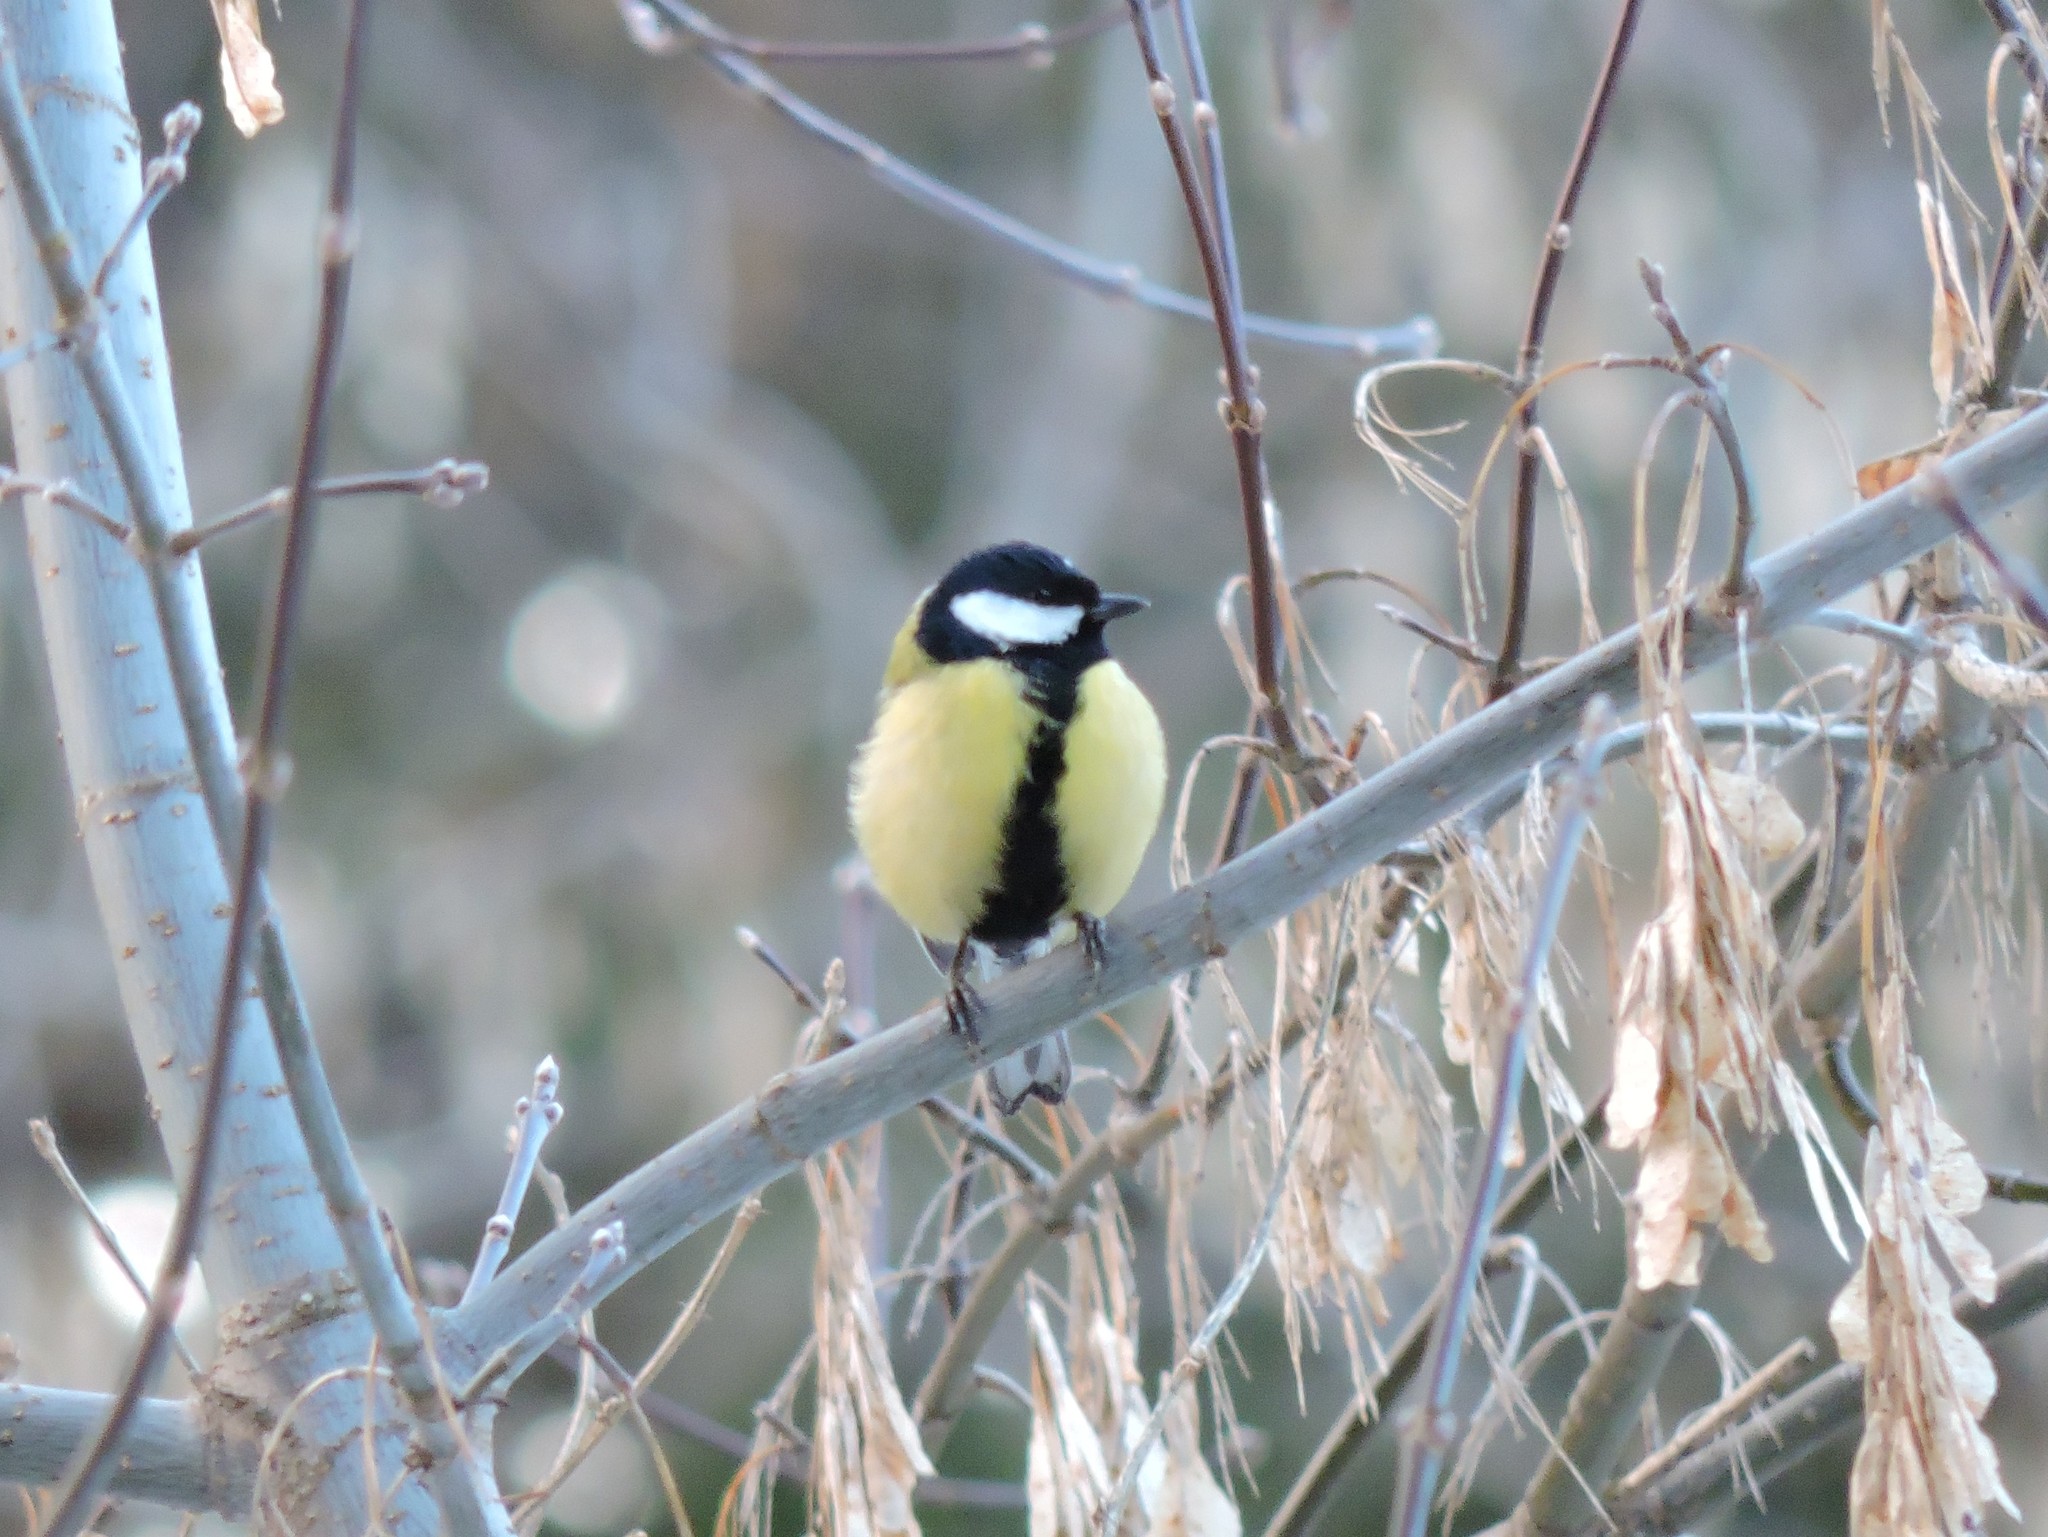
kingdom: Animalia
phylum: Chordata
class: Aves
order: Passeriformes
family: Paridae
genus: Parus
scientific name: Parus major
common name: Great tit
